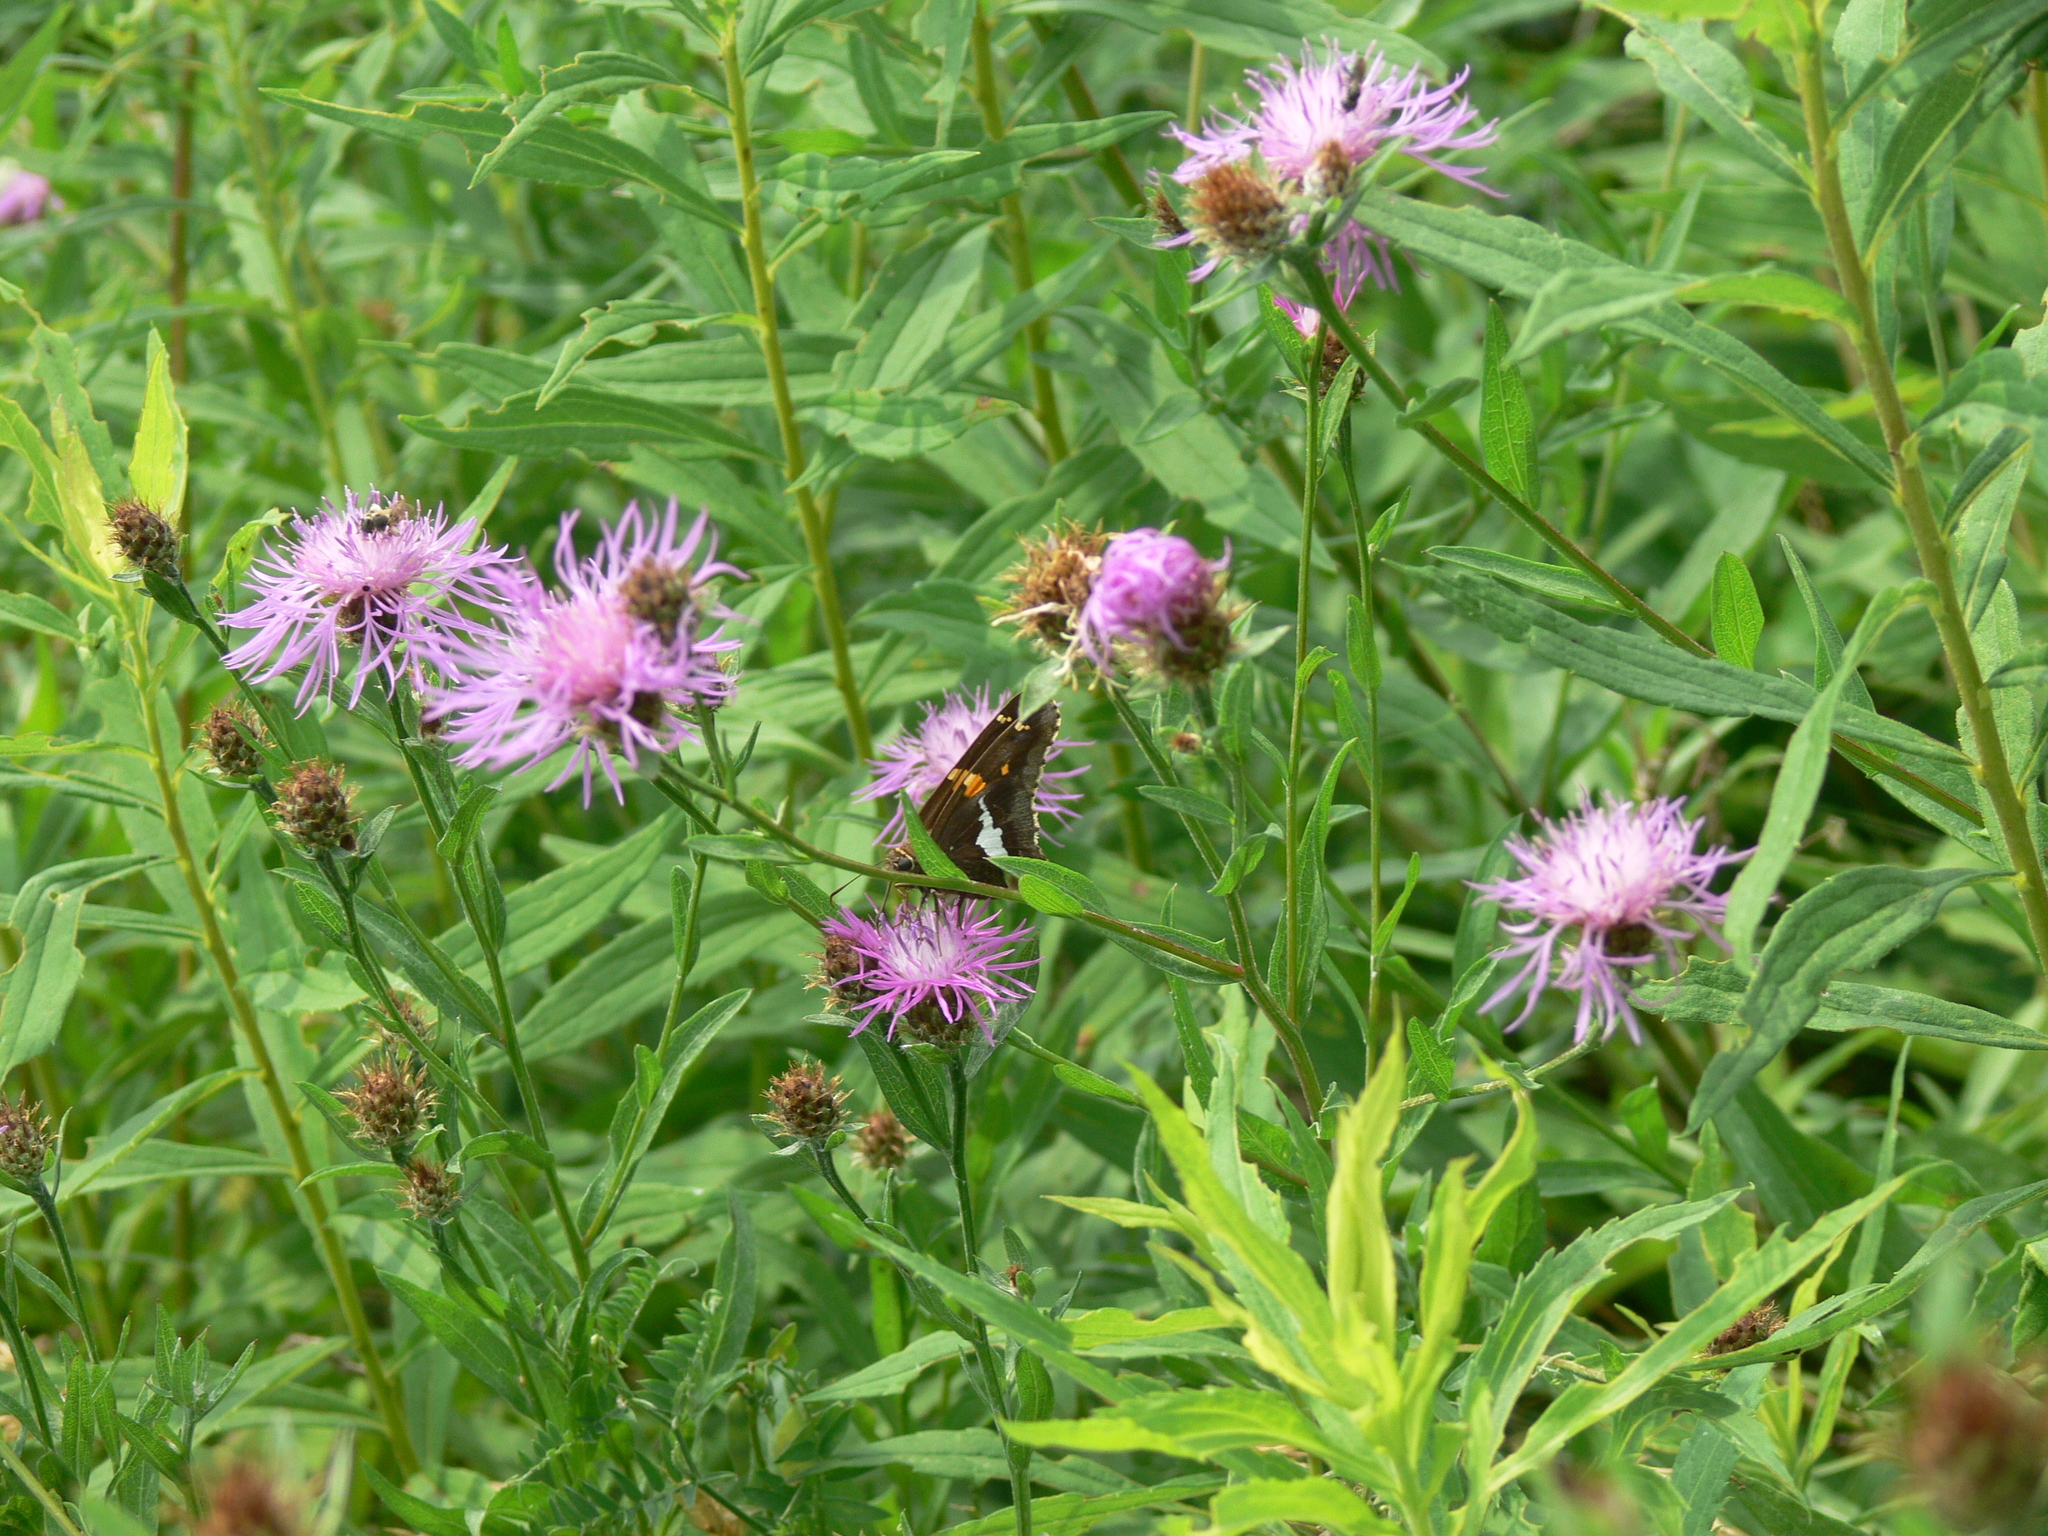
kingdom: Animalia
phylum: Arthropoda
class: Insecta
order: Lepidoptera
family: Hesperiidae
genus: Epargyreus
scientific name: Epargyreus clarus
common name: Silver-spotted skipper
